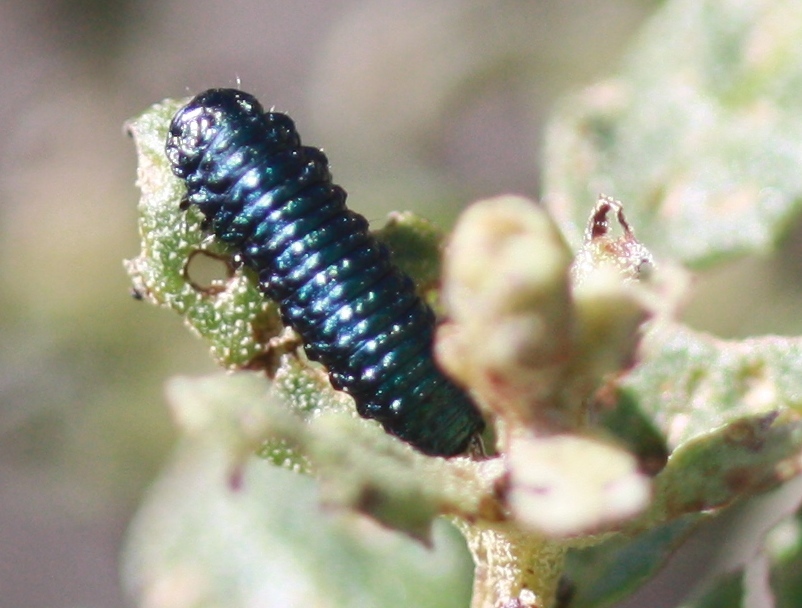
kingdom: Animalia
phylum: Arthropoda
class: Insecta
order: Coleoptera
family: Chrysomelidae
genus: Trirhabda
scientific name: Trirhabda flavolimbata
